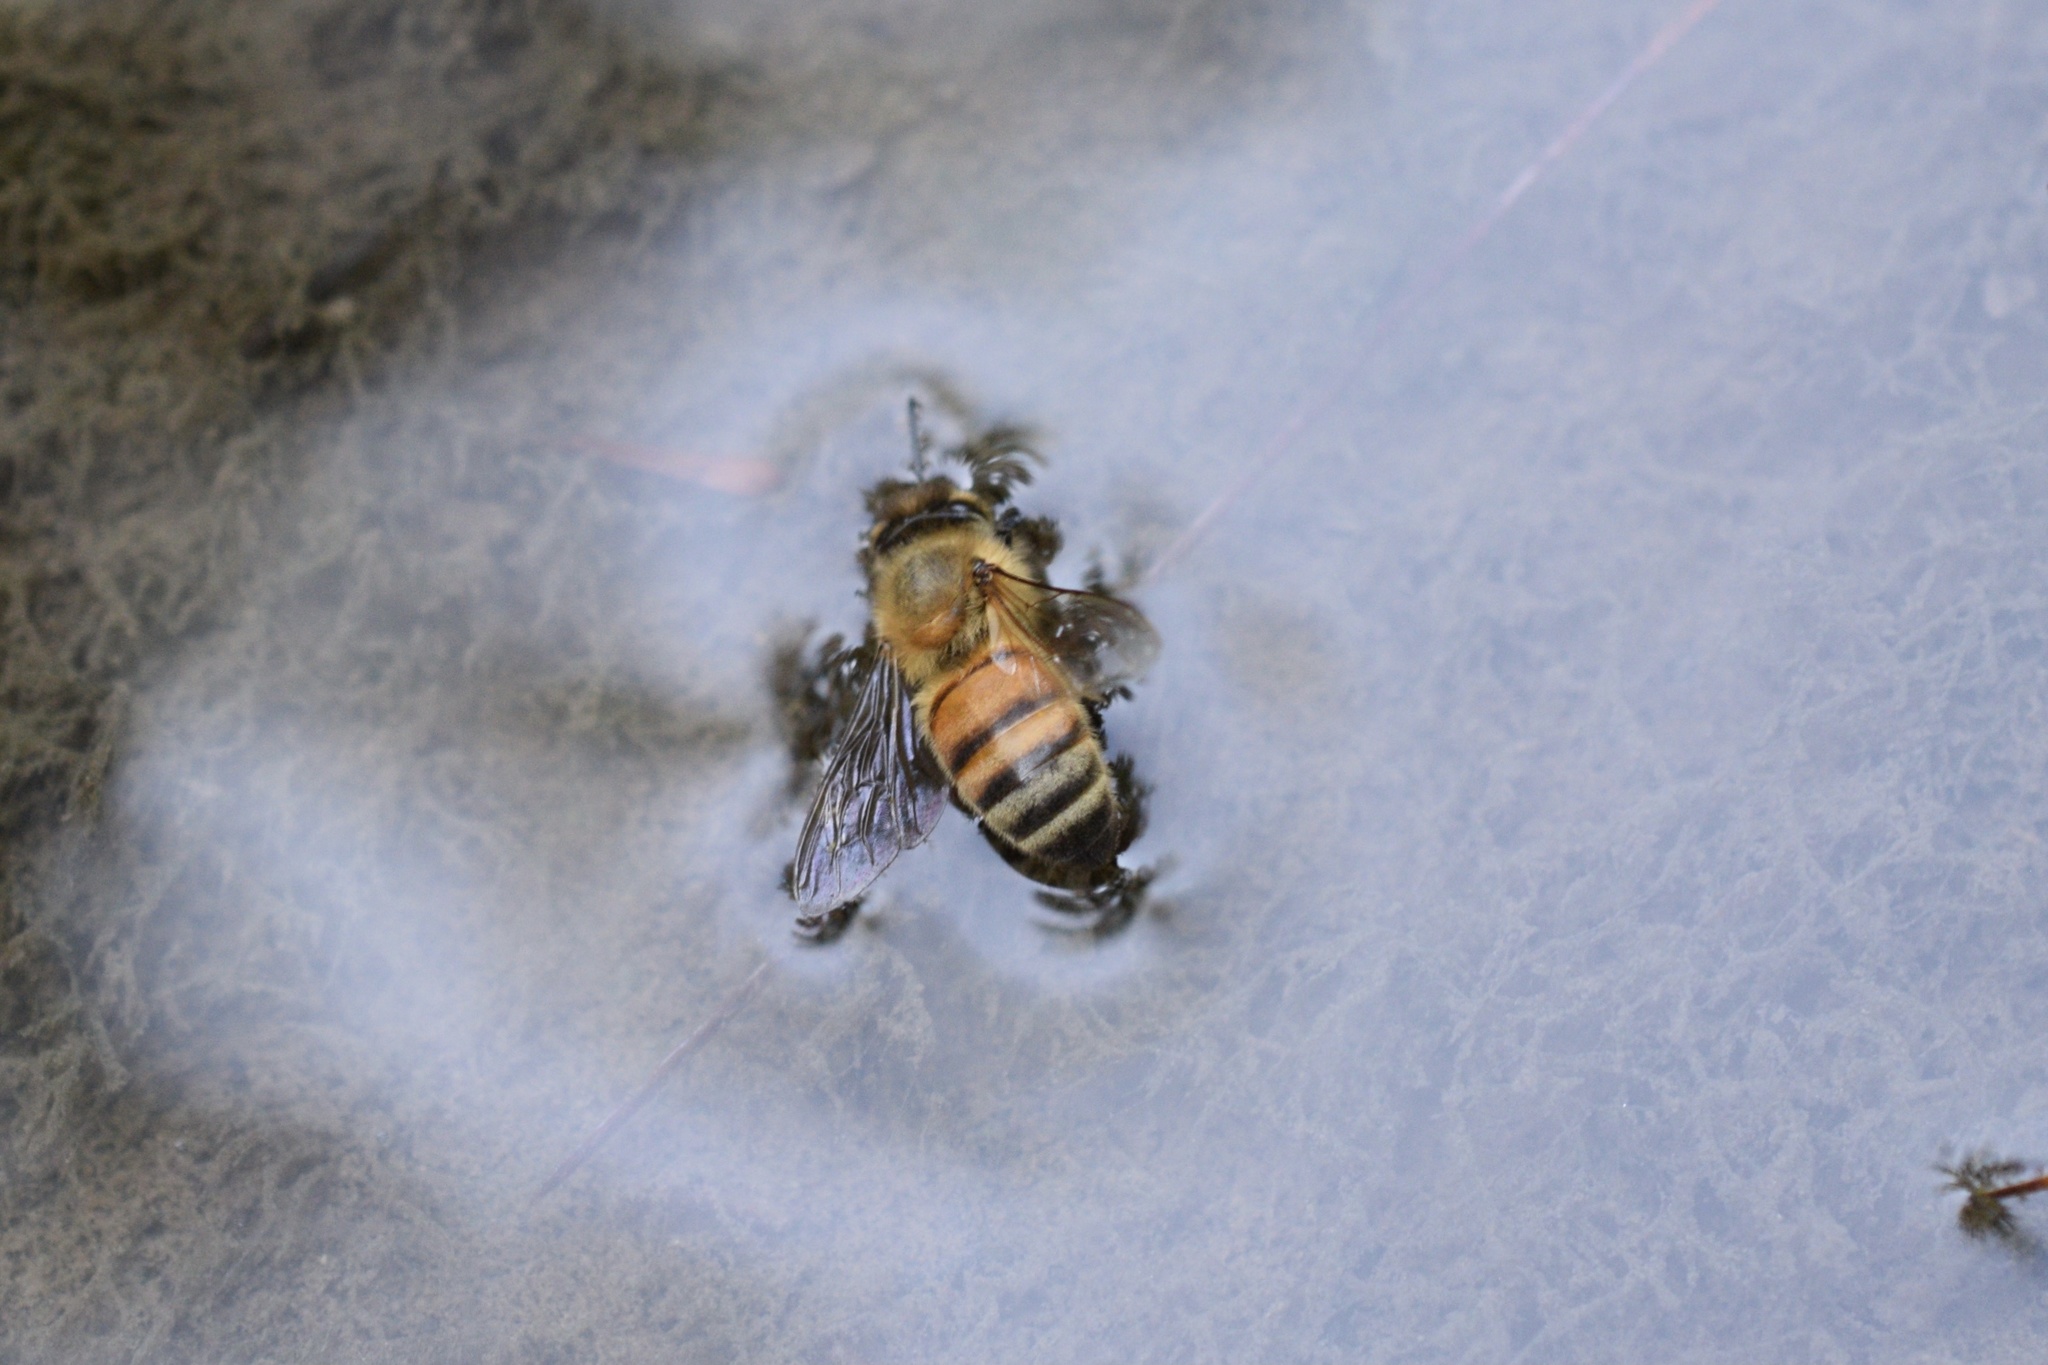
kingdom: Animalia
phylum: Arthropoda
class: Insecta
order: Hymenoptera
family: Apidae
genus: Apis
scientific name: Apis mellifera
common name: Honey bee
